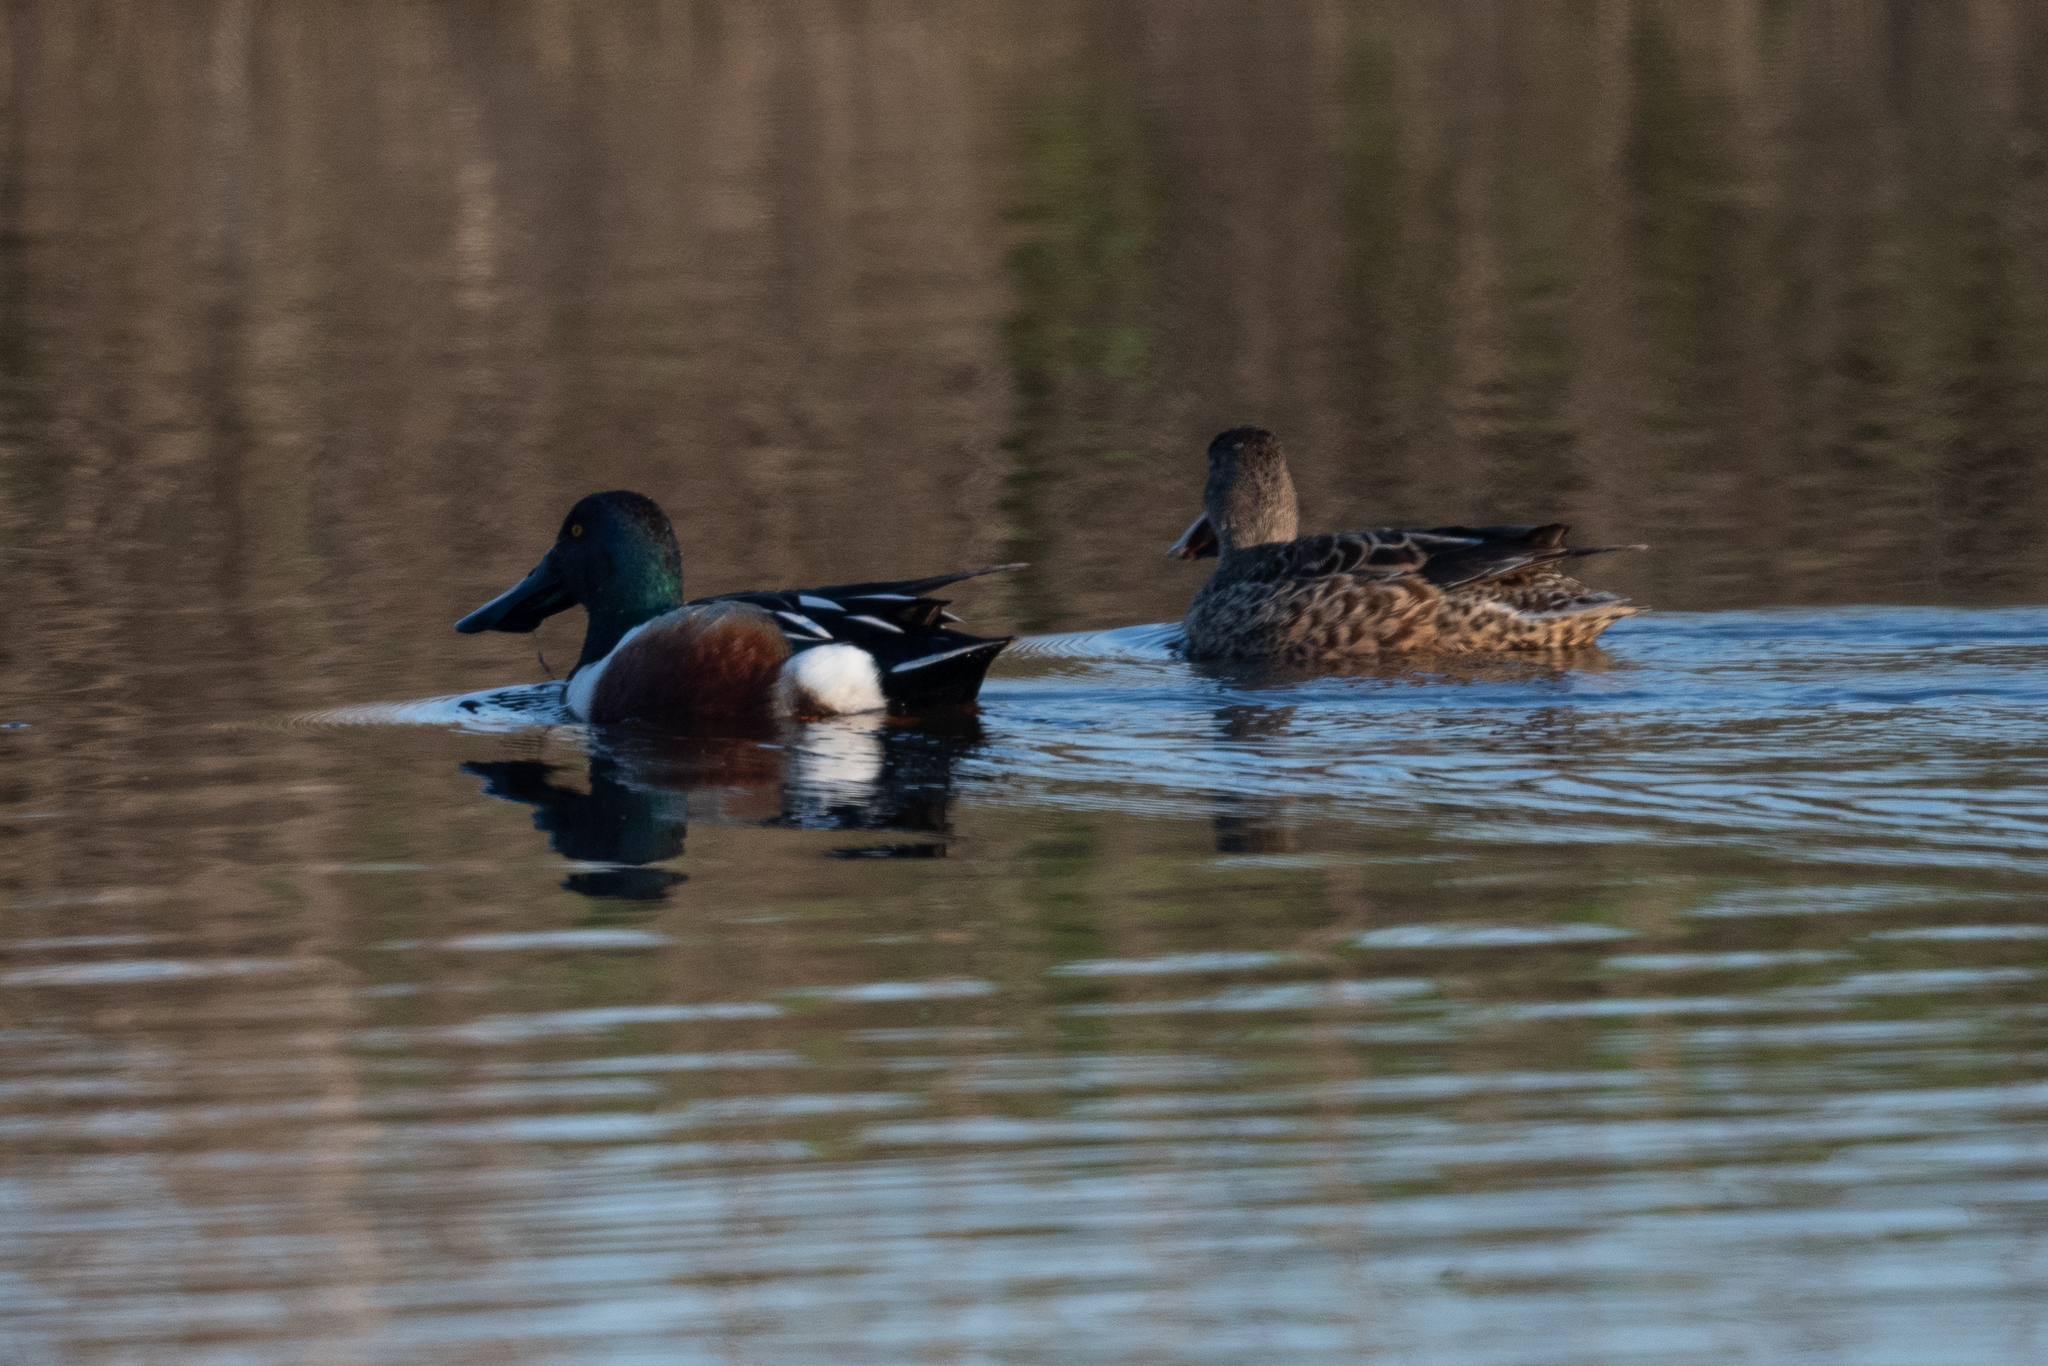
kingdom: Animalia
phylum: Chordata
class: Aves
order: Anseriformes
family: Anatidae
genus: Spatula
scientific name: Spatula clypeata
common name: Northern shoveler
